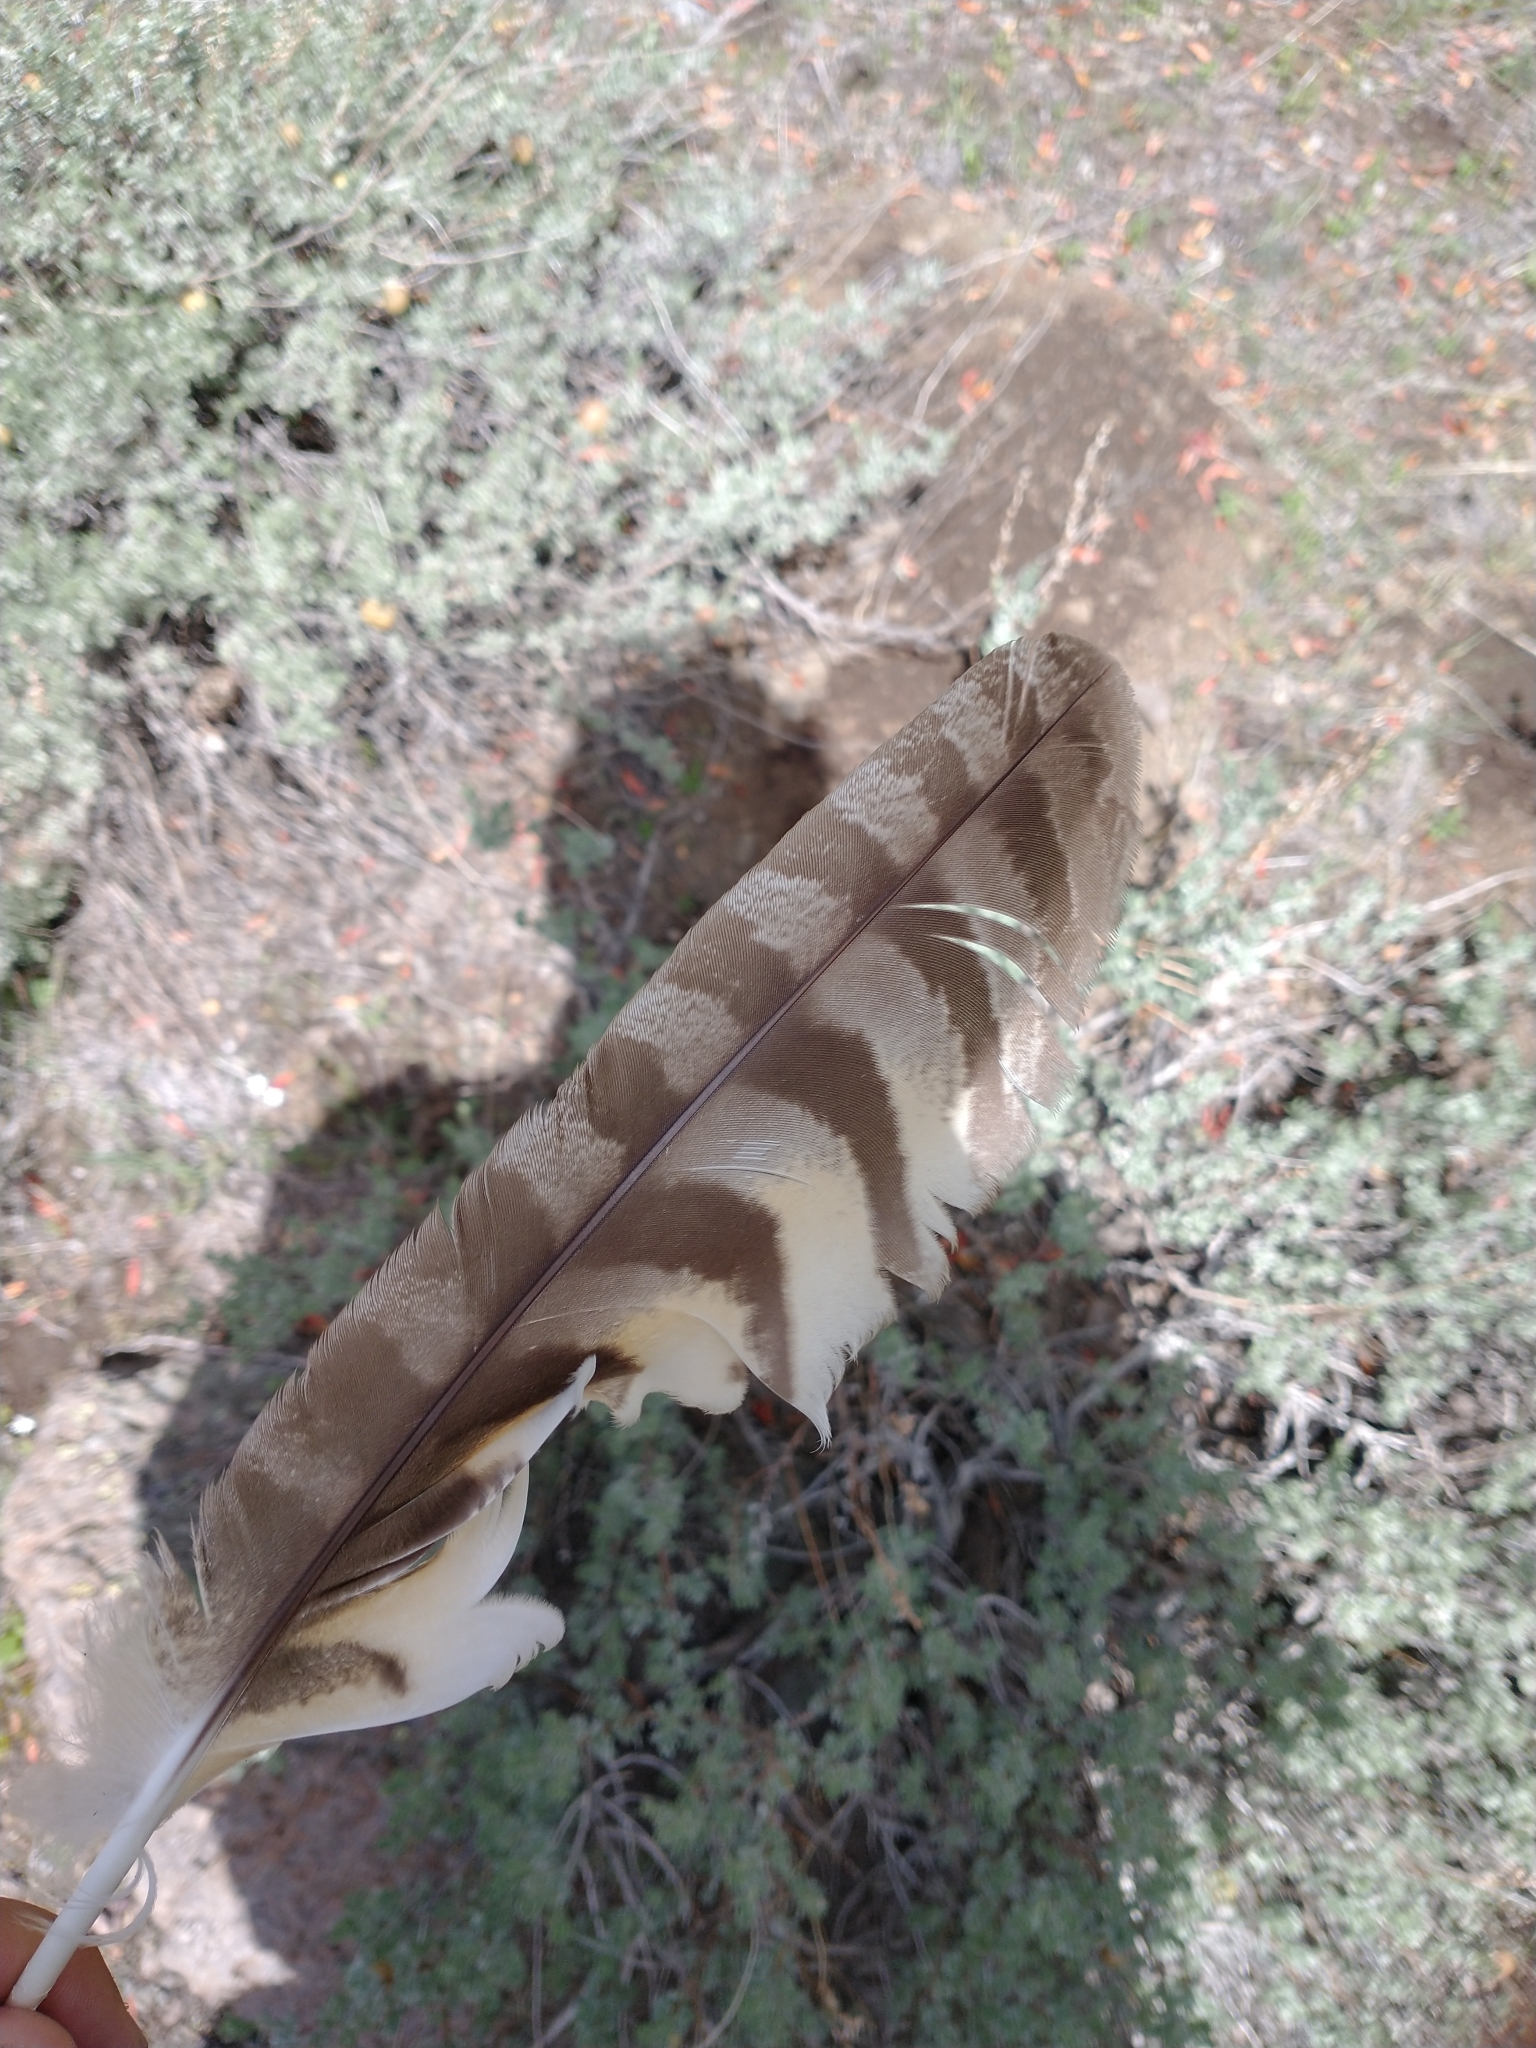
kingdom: Animalia
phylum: Chordata
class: Aves
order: Strigiformes
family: Strigidae
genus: Bubo
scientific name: Bubo virginianus
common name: Great horned owl
